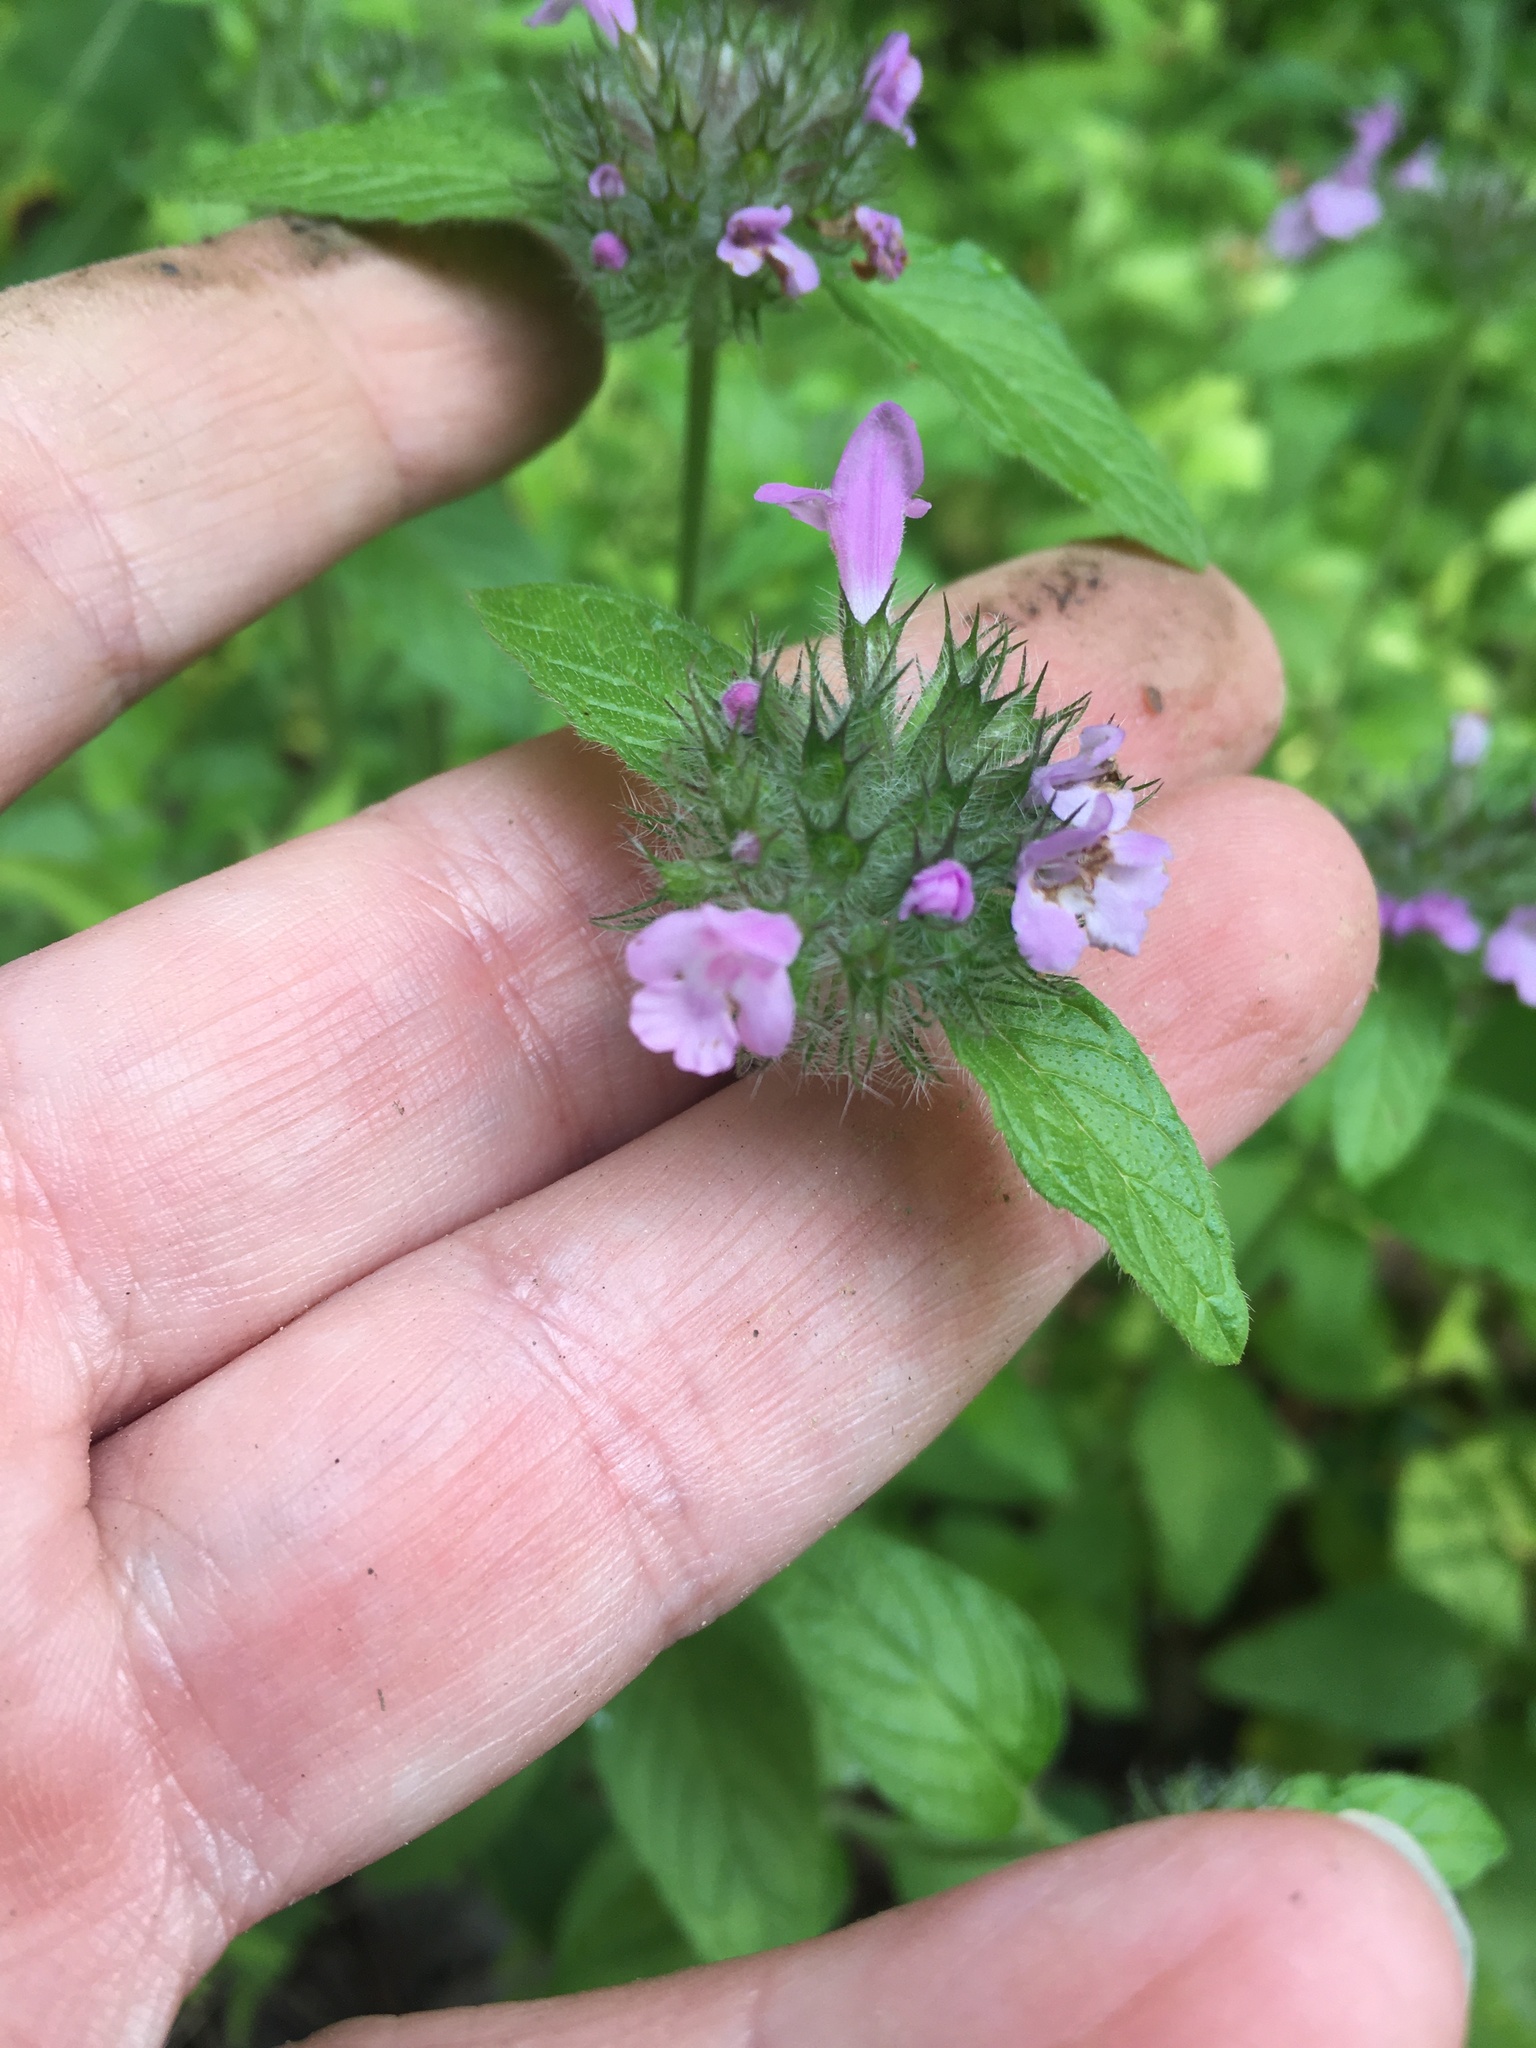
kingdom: Plantae
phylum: Tracheophyta
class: Magnoliopsida
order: Lamiales
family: Lamiaceae
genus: Clinopodium
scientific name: Clinopodium vulgare
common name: Wild basil
